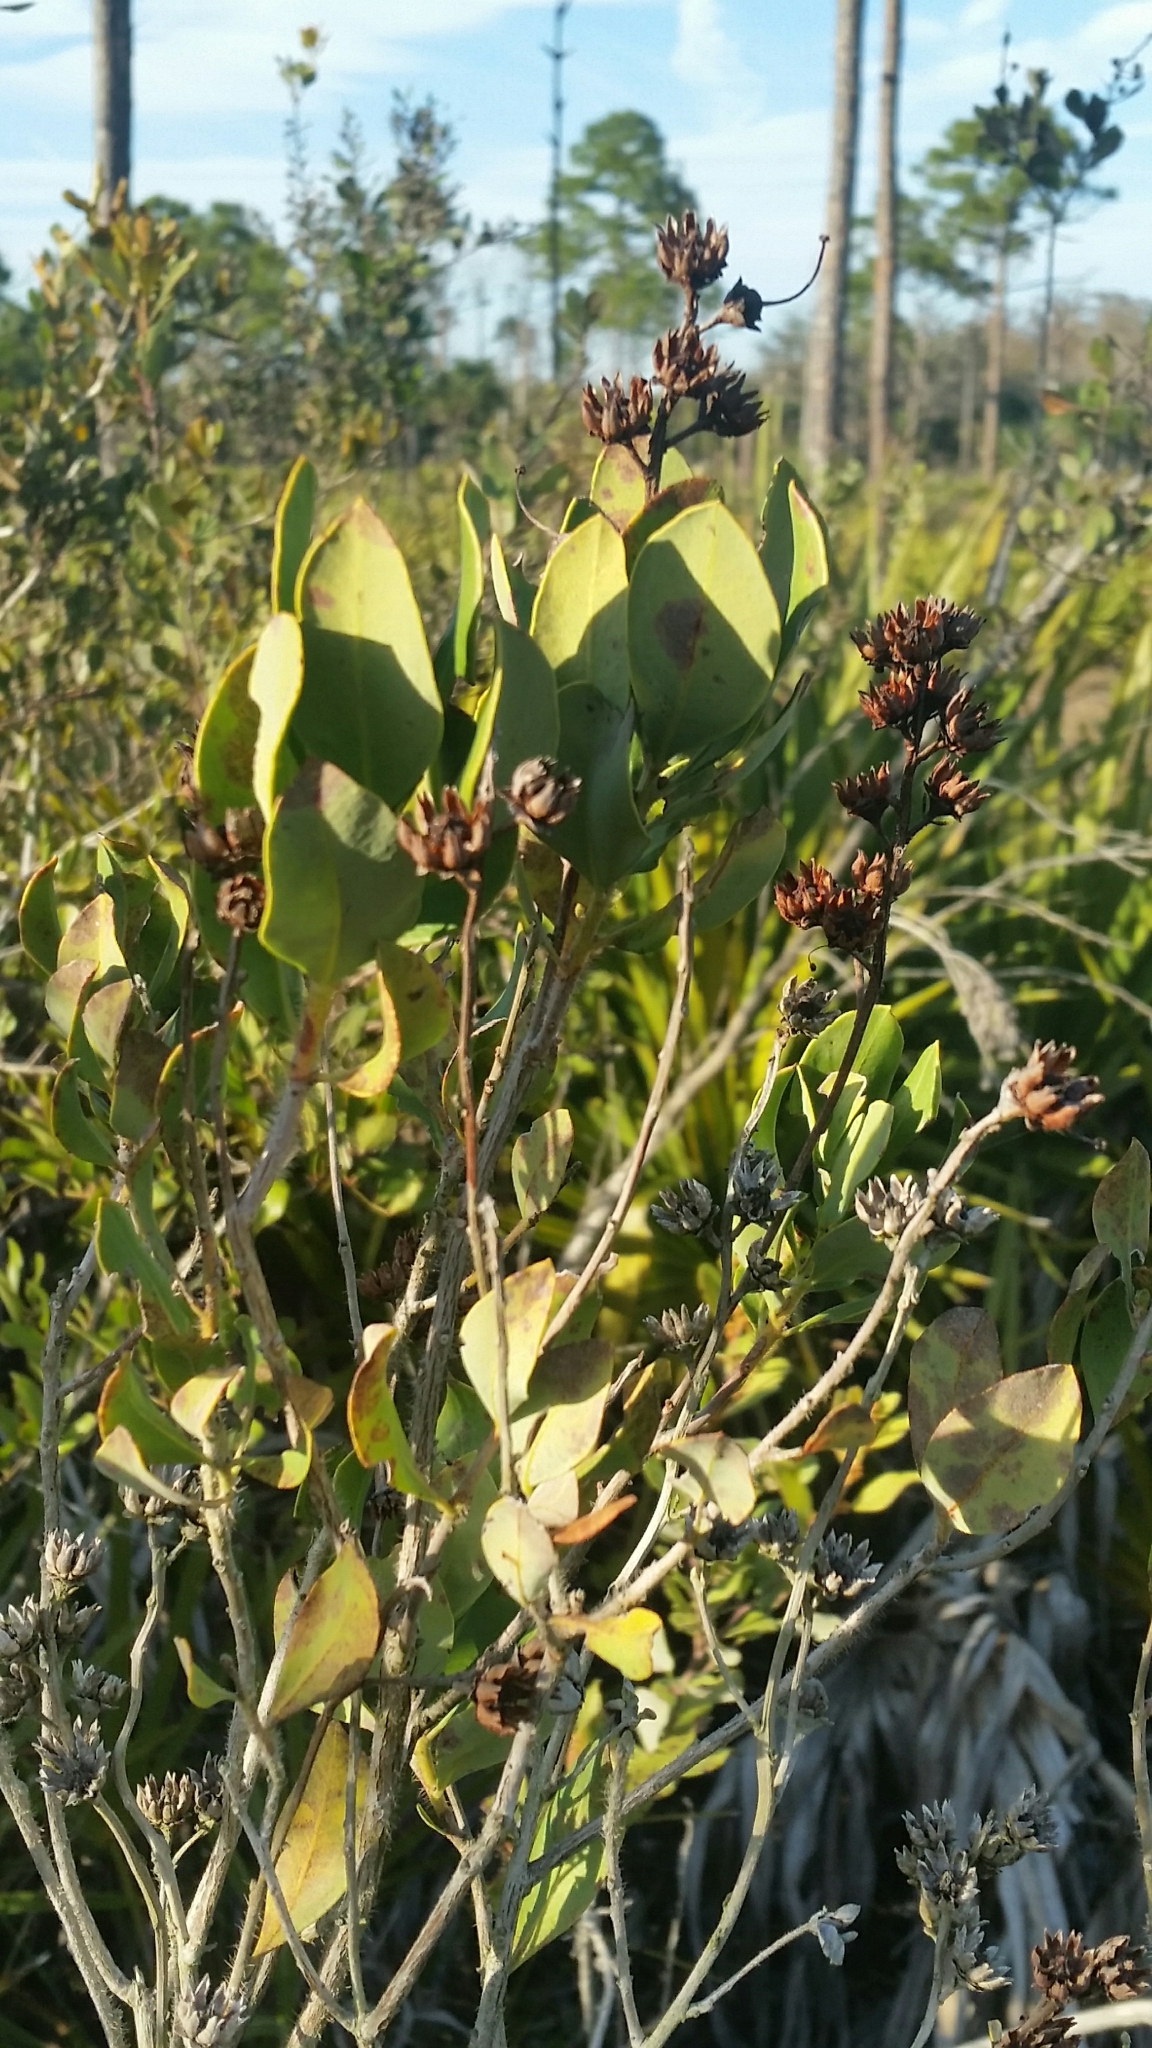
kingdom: Plantae
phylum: Tracheophyta
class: Magnoliopsida
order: Ericales
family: Ericaceae
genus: Bejaria
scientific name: Bejaria racemosa
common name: Tarflower
